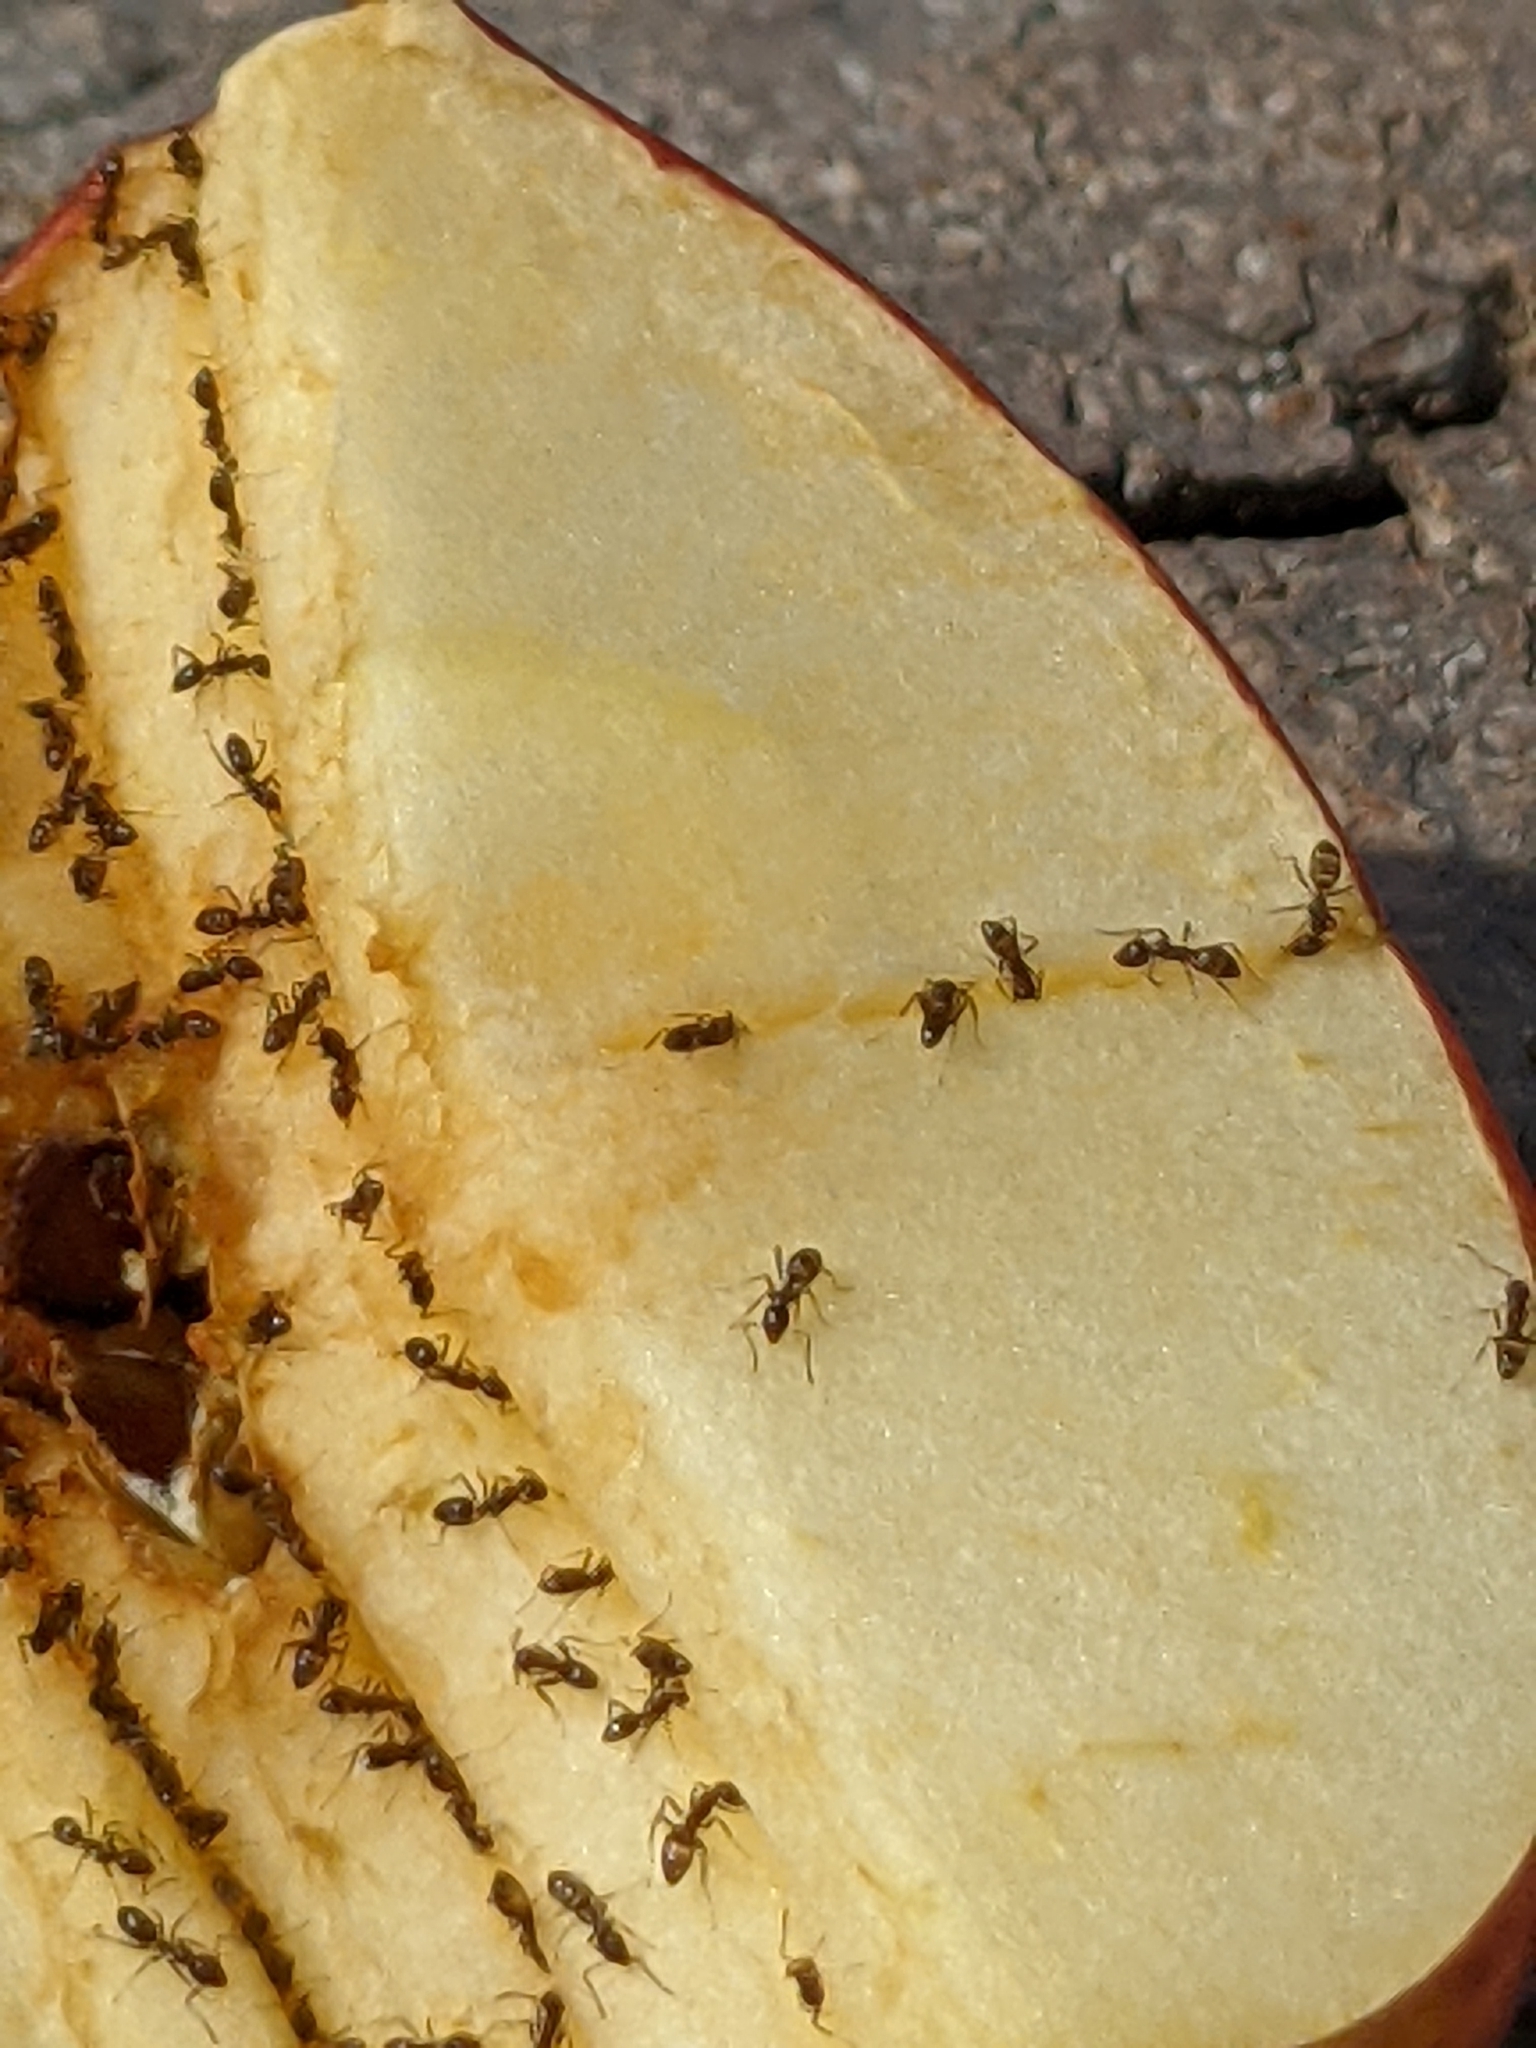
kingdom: Animalia
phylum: Arthropoda
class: Insecta
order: Hymenoptera
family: Formicidae
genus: Linepithema
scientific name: Linepithema humile
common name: Argentine ant
